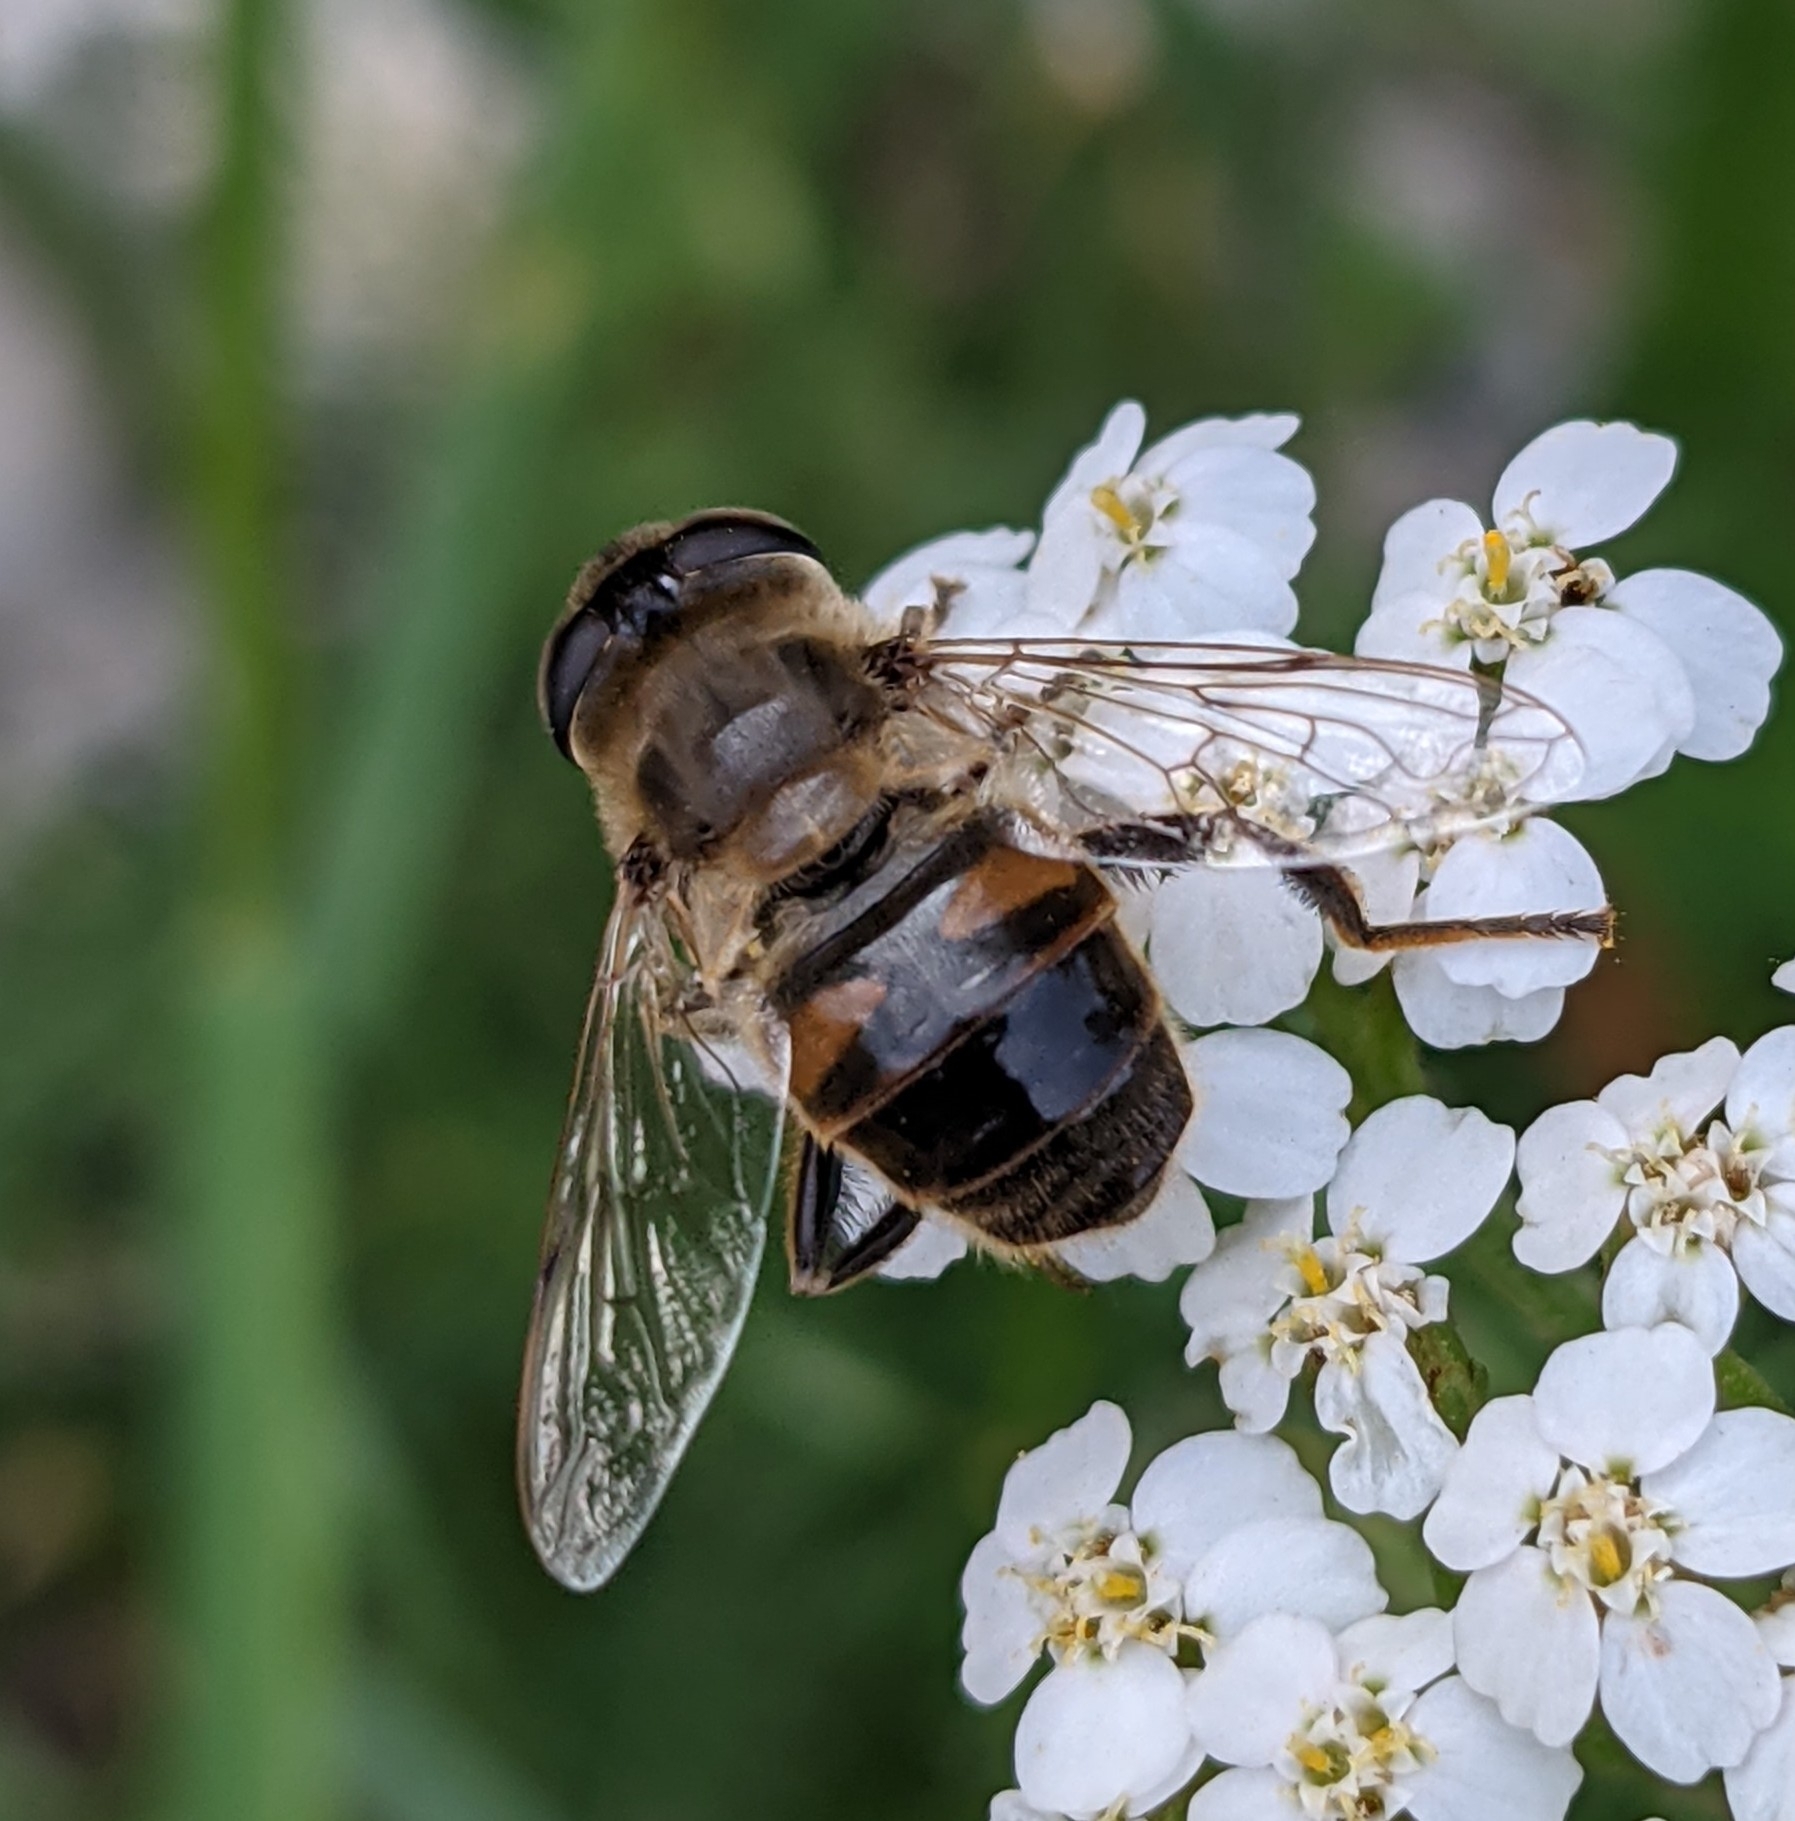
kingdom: Animalia
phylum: Arthropoda
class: Insecta
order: Diptera
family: Syrphidae
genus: Eristalis
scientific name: Eristalis tenax
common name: Drone fly
